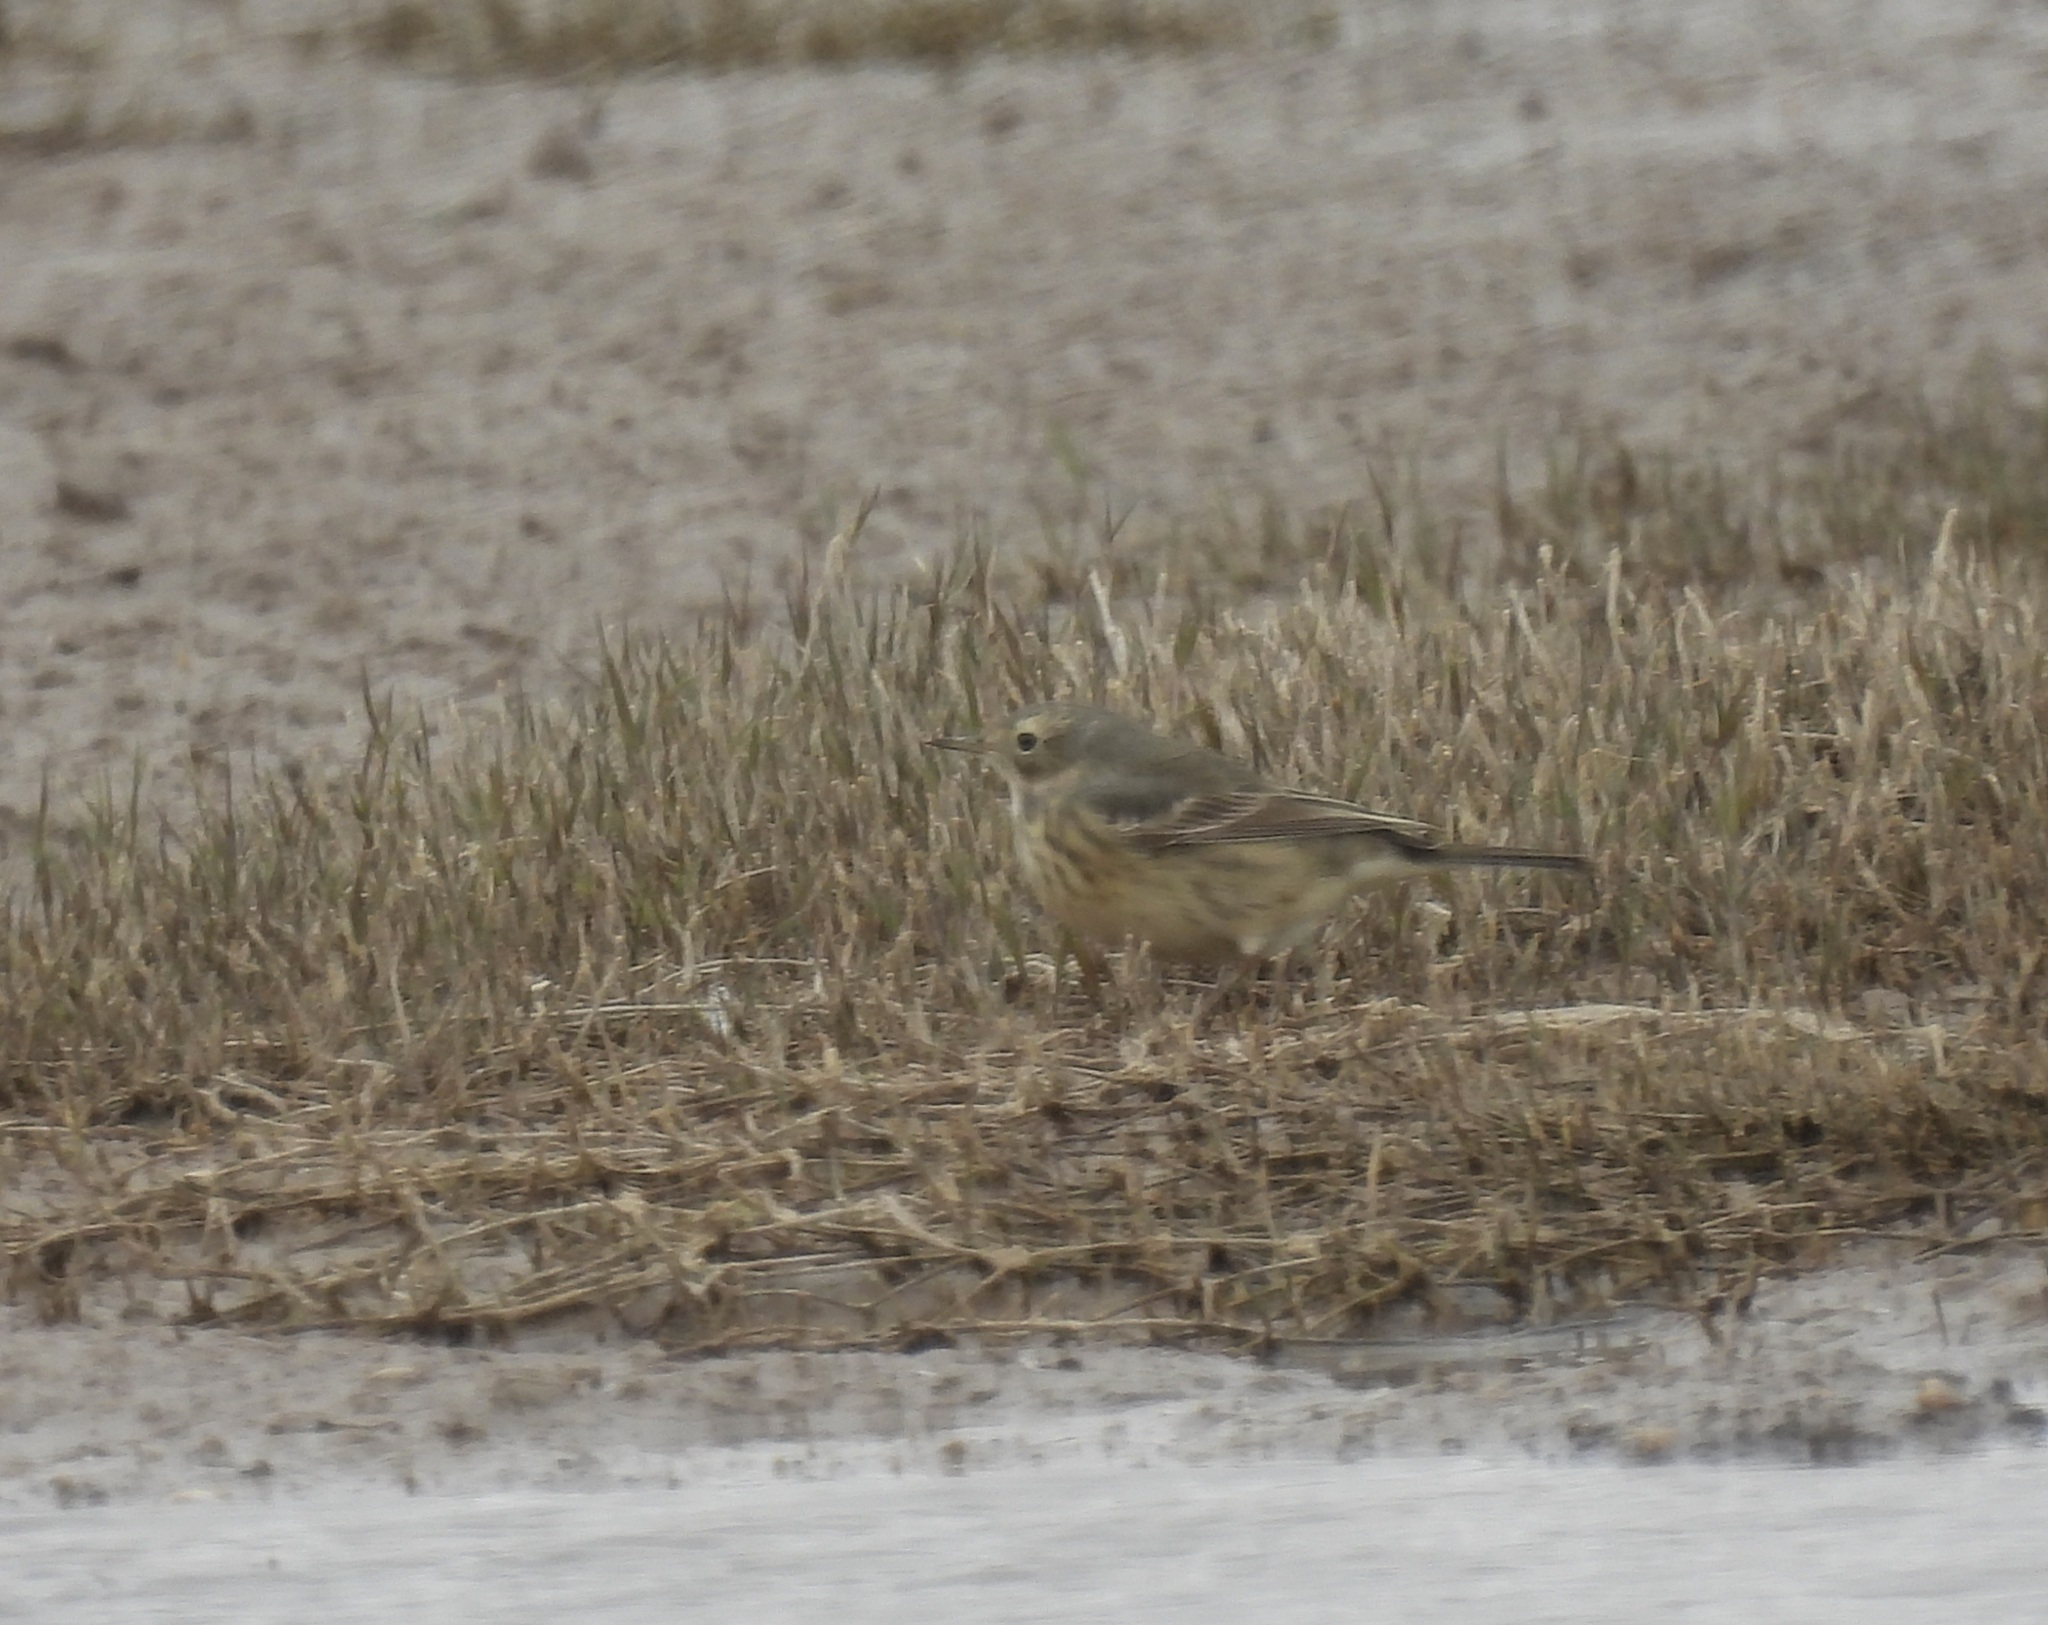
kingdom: Animalia
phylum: Chordata
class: Aves
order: Passeriformes
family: Motacillidae
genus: Anthus
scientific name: Anthus rubescens
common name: Buff-bellied pipit
